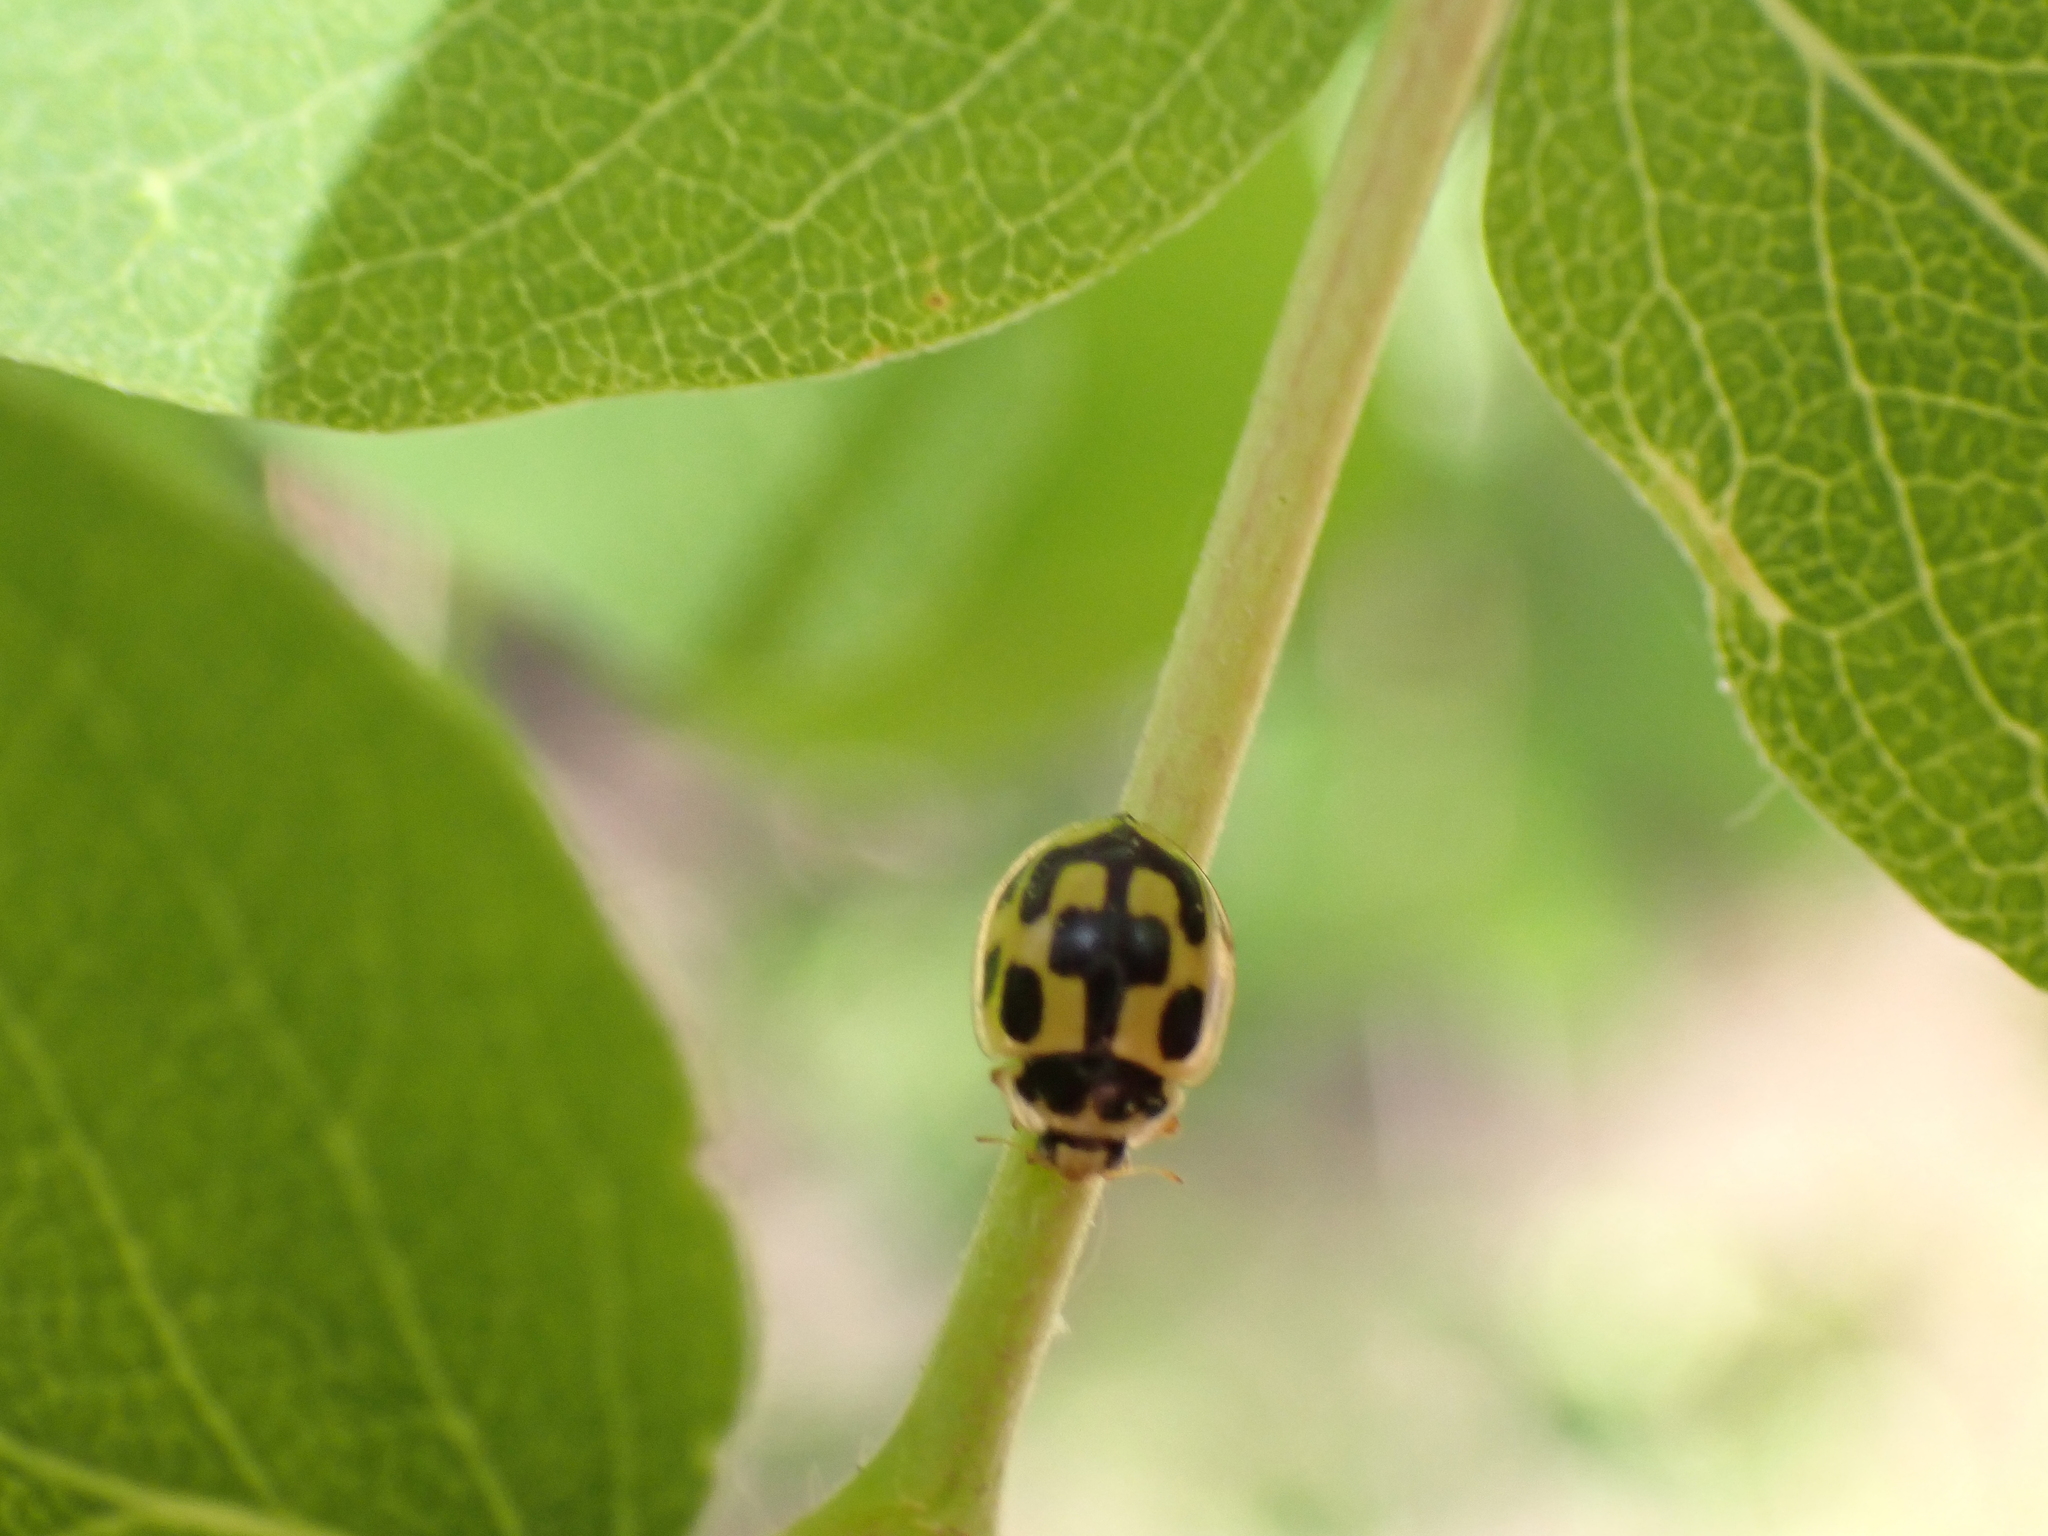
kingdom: Animalia
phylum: Arthropoda
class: Insecta
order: Coleoptera
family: Coccinellidae
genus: Propylaea
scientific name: Propylaea quatuordecimpunctata
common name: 14-spotted ladybird beetle
